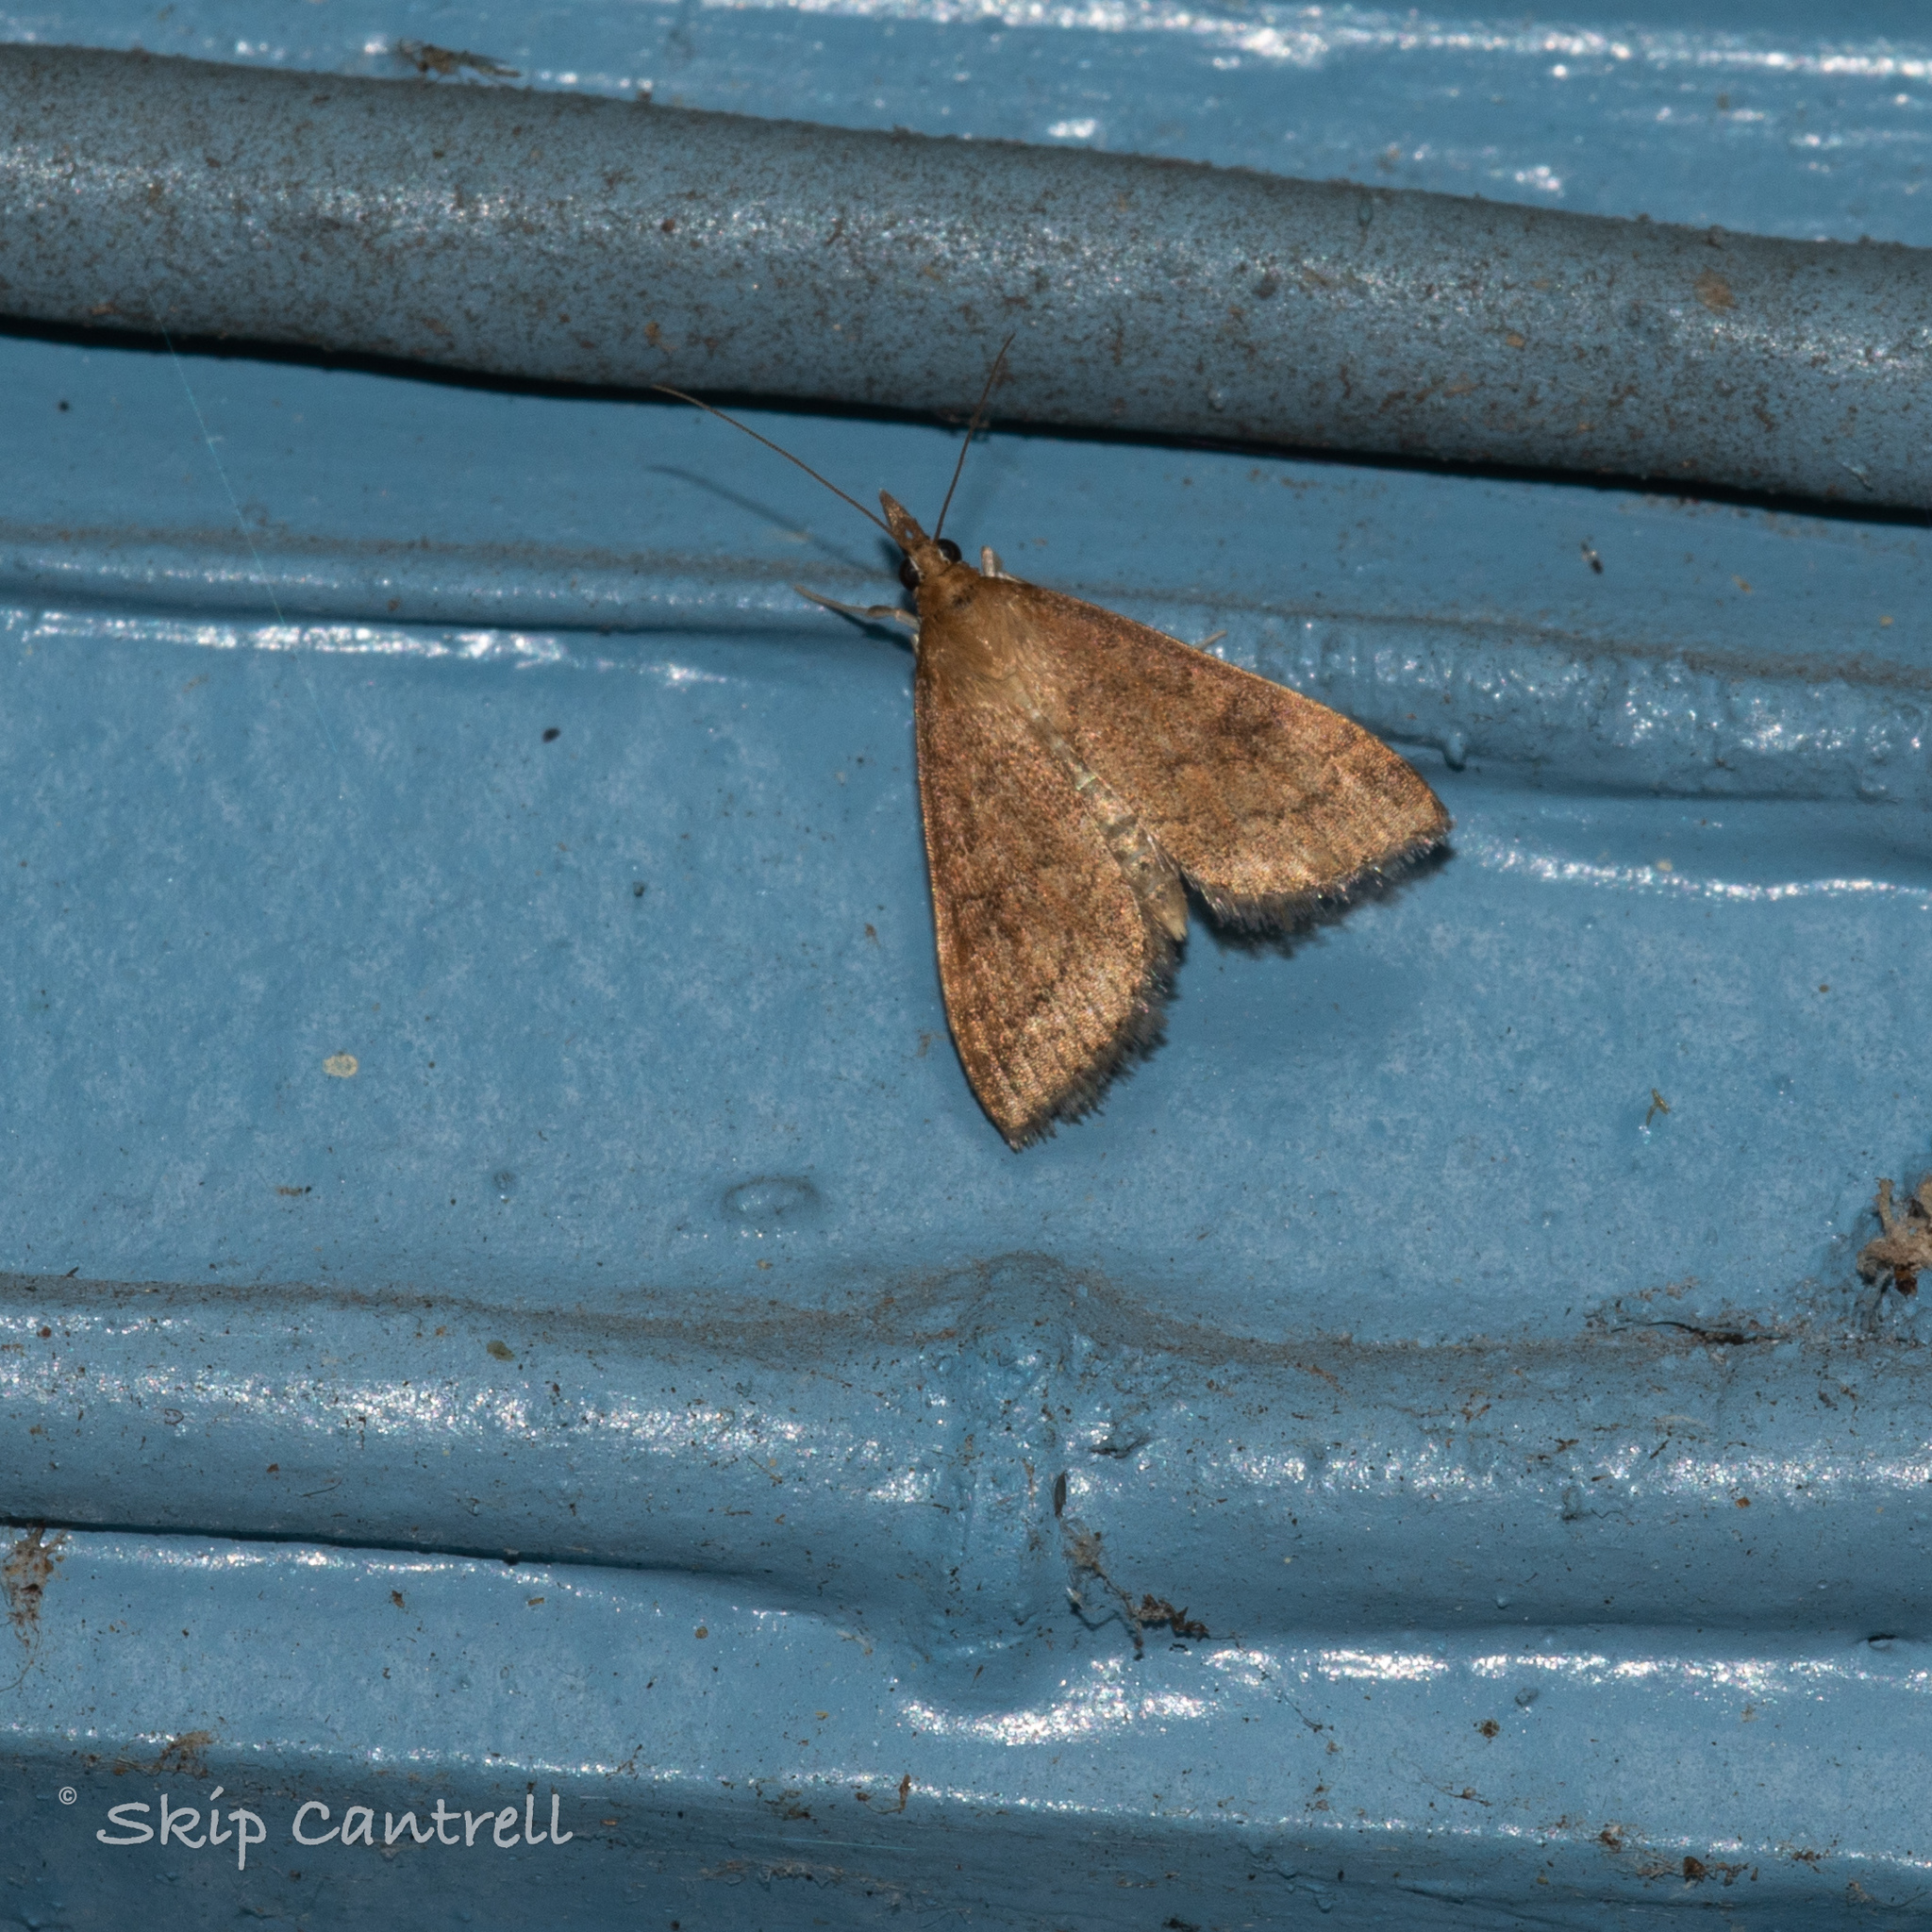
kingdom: Animalia
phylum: Arthropoda
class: Insecta
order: Lepidoptera
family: Crambidae
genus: Udea
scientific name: Udea rubigalis
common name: Celery leaftier moth
